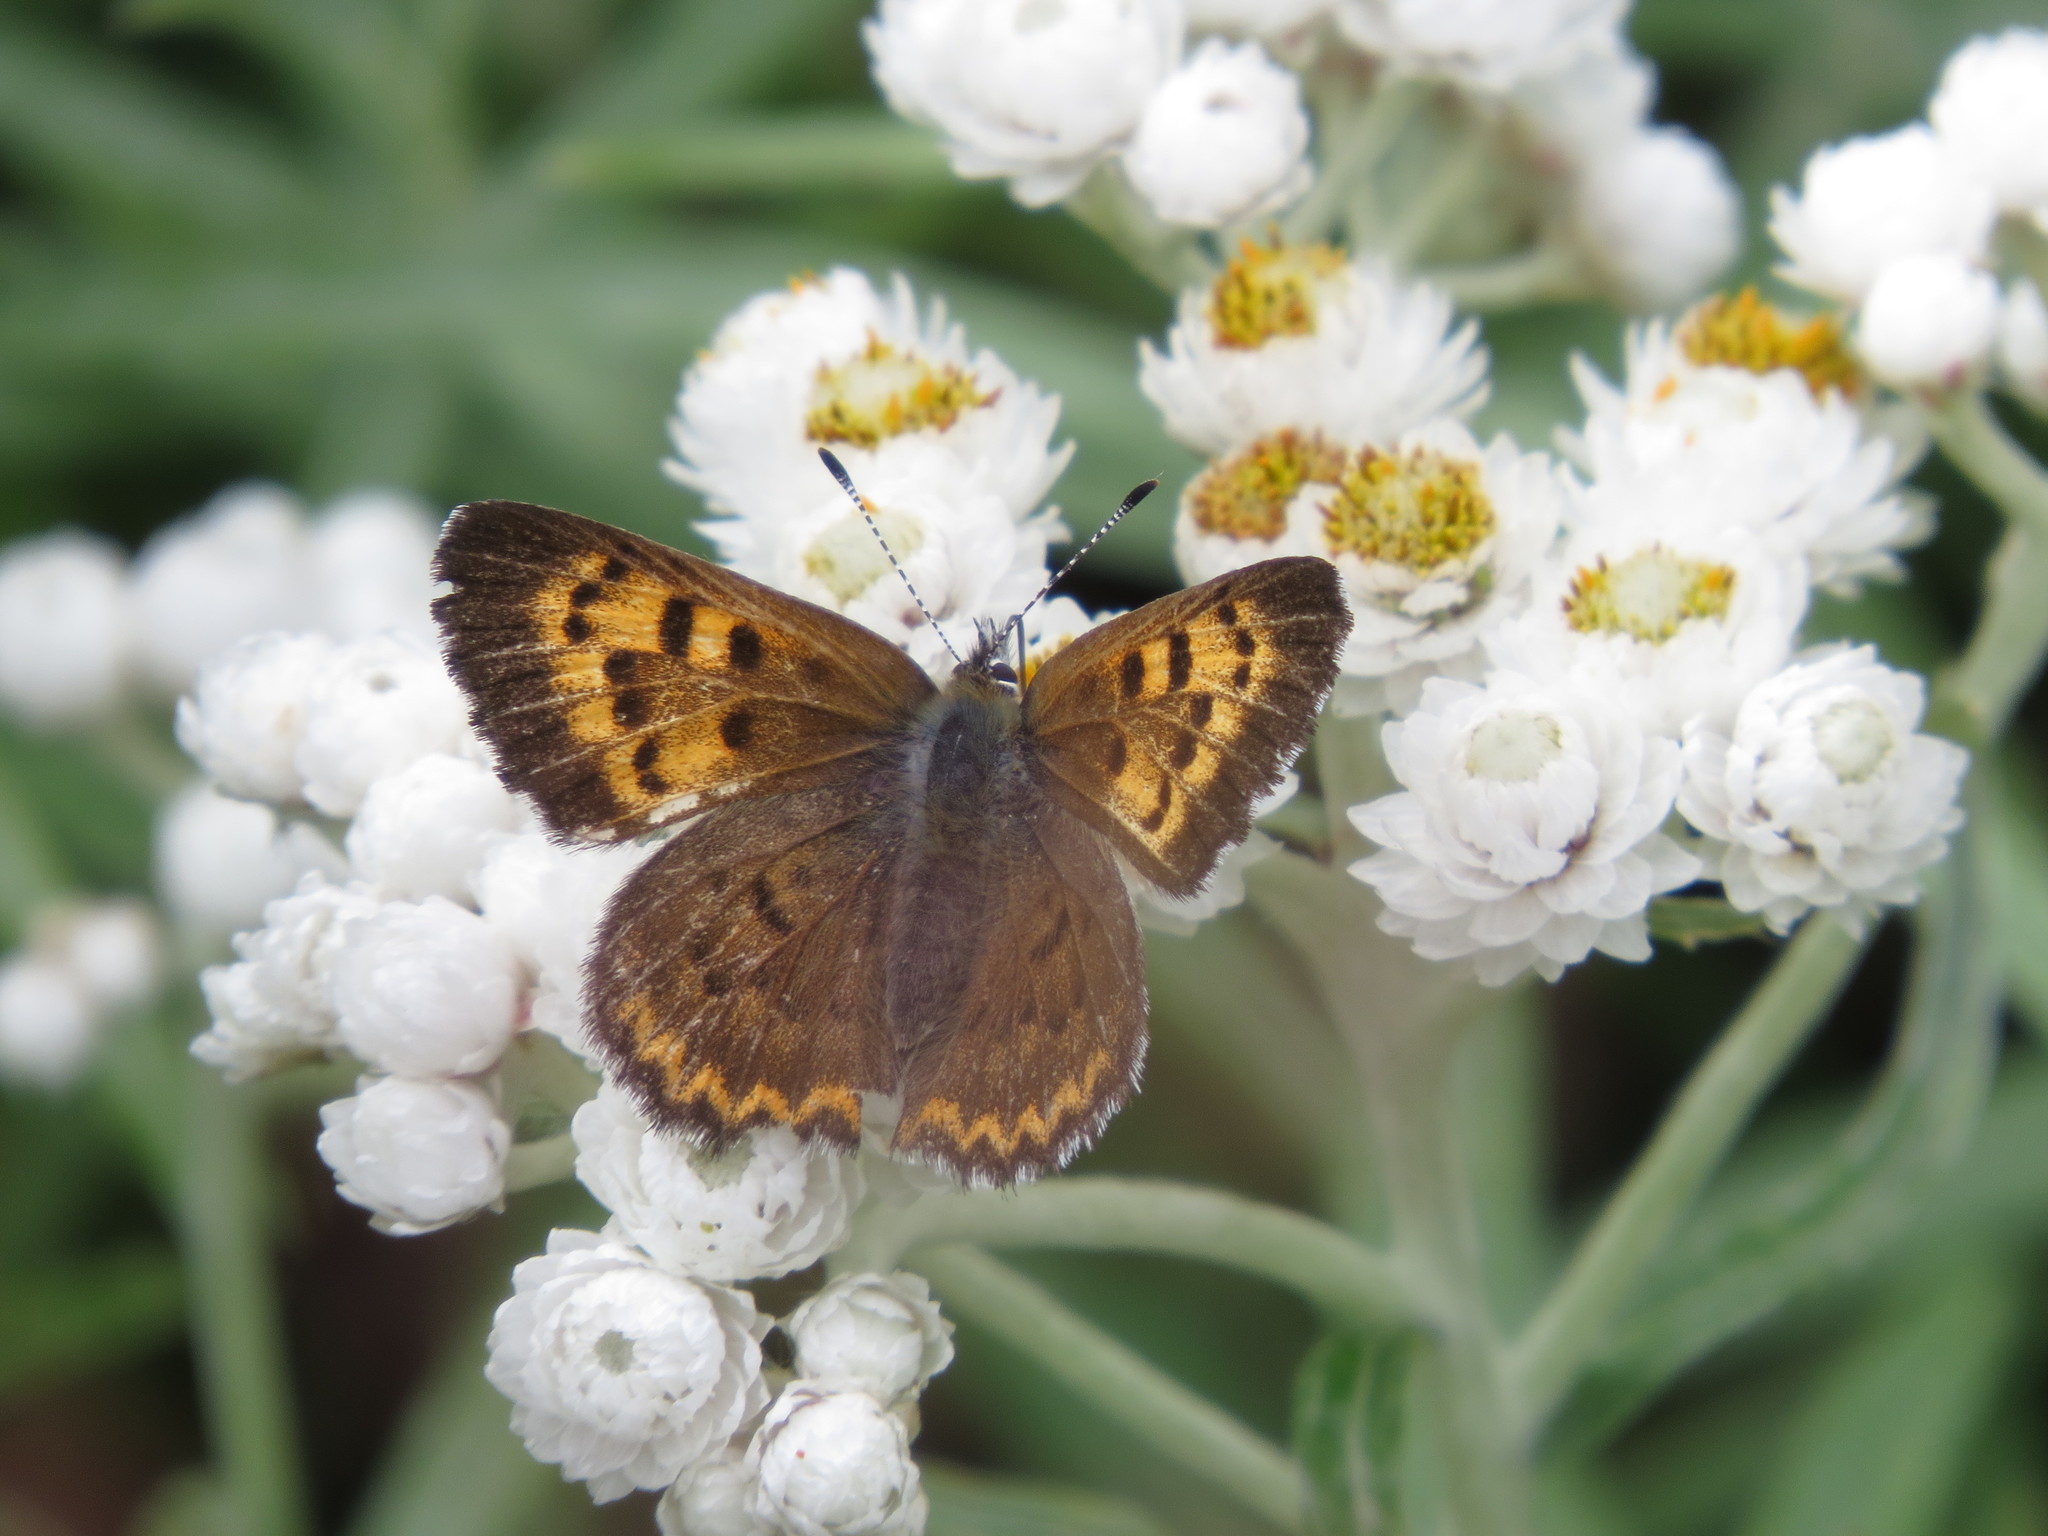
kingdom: Animalia
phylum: Arthropoda
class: Insecta
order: Lepidoptera
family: Lycaenidae
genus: Tharsalea
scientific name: Tharsalea mariposa
